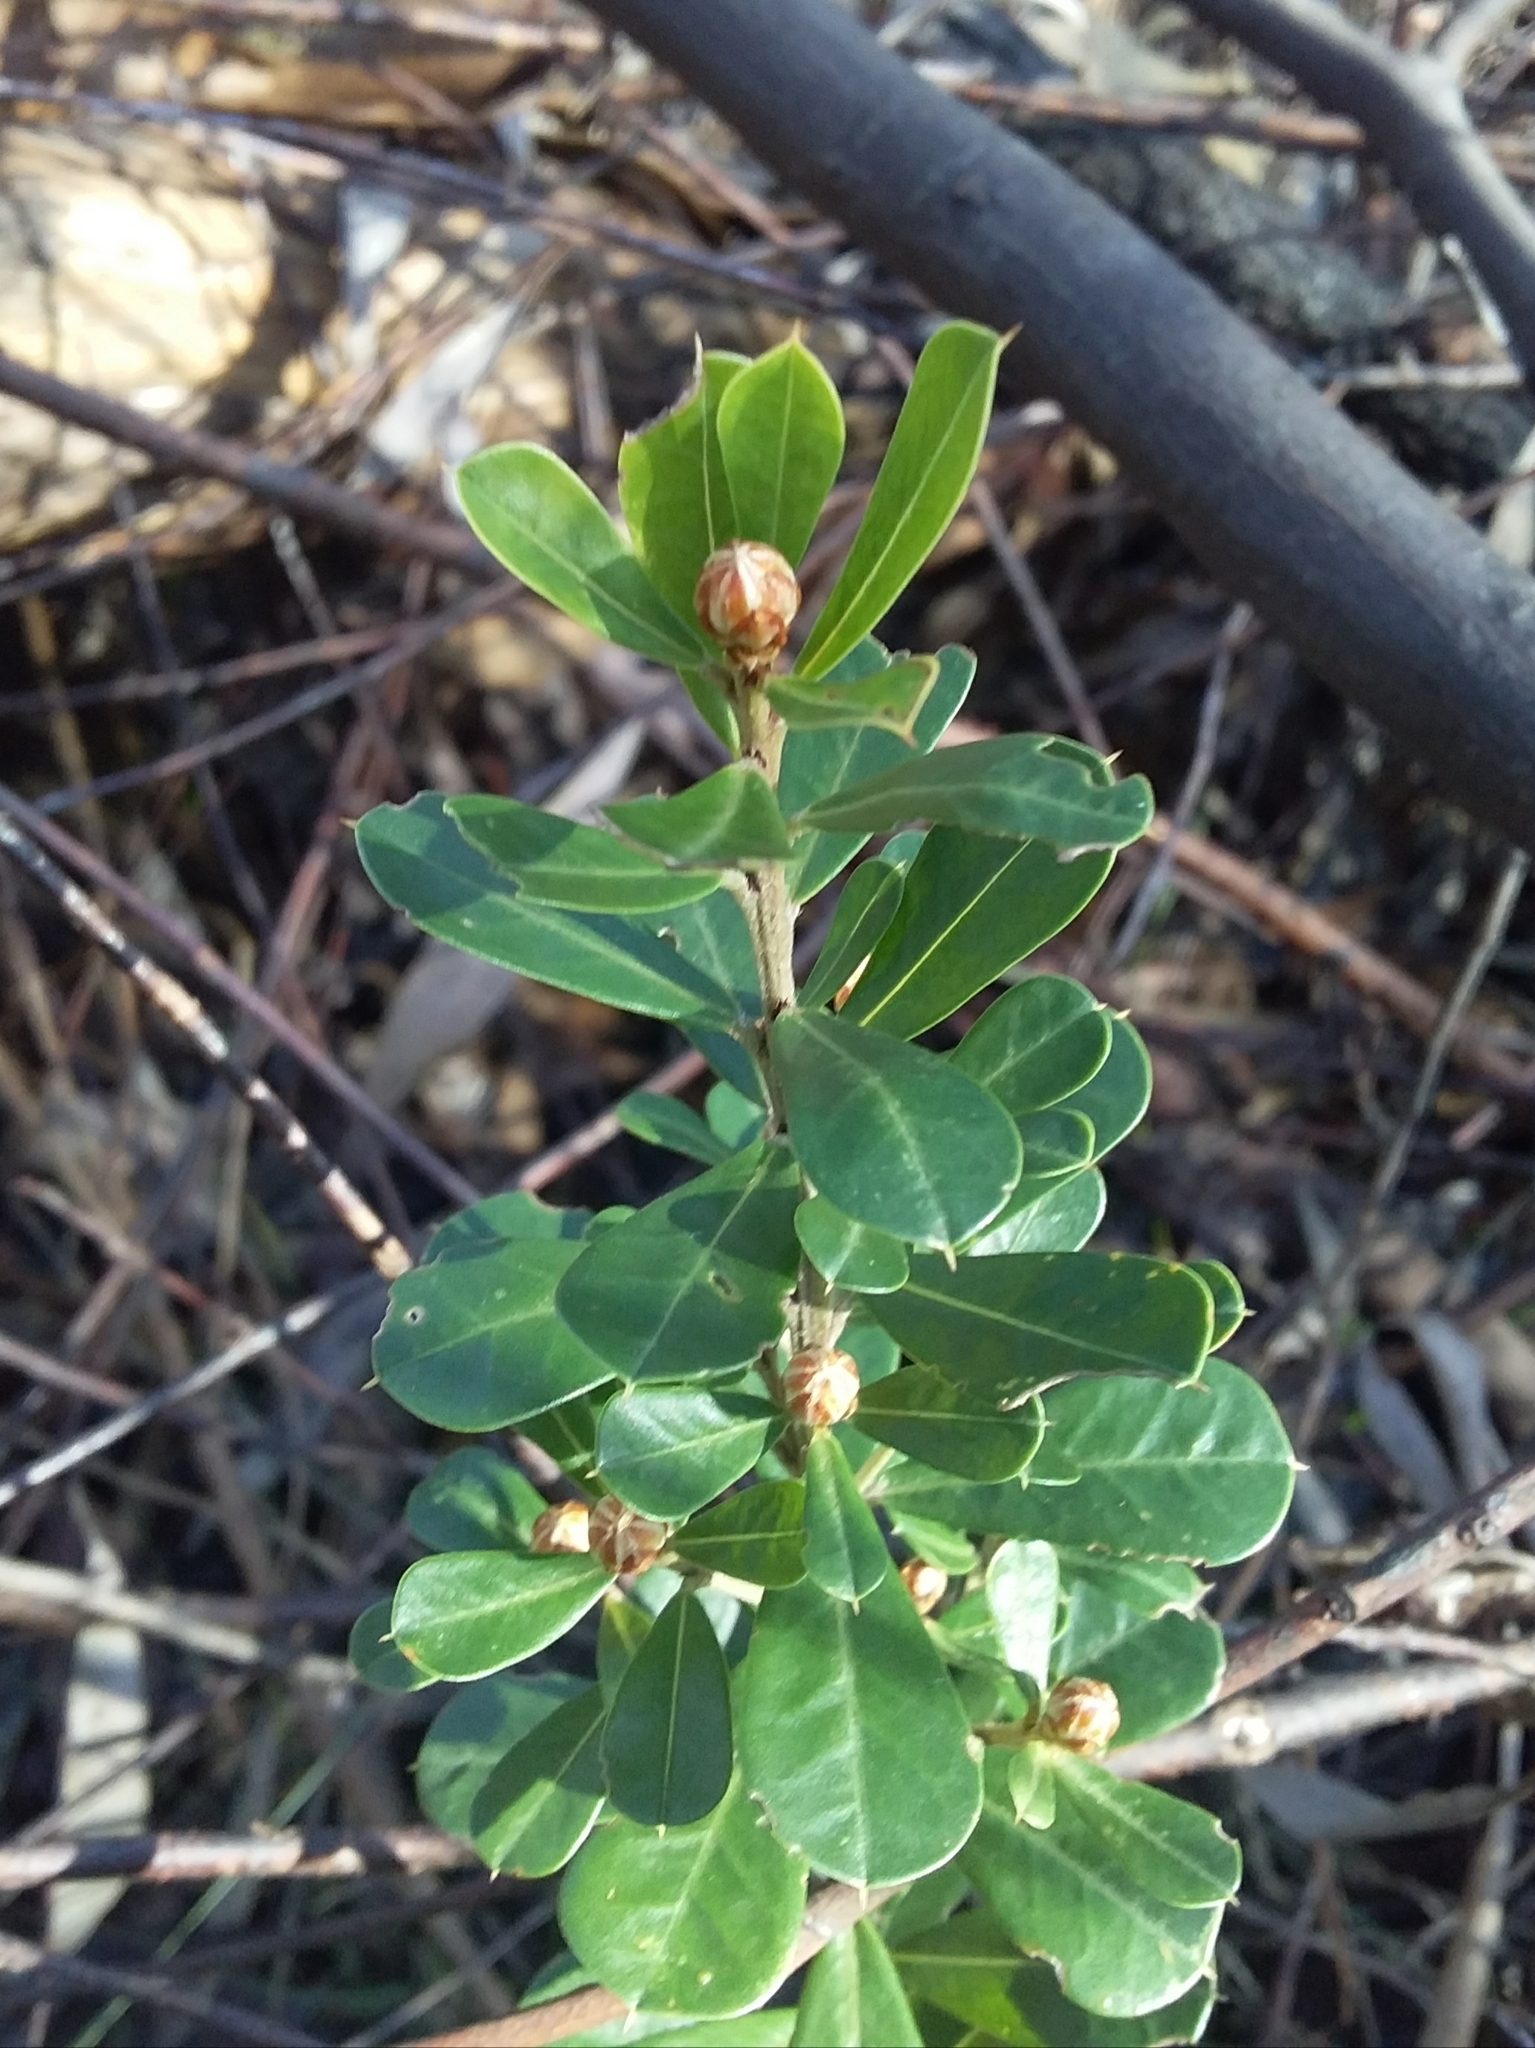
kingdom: Plantae
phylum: Tracheophyta
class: Magnoliopsida
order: Fabales
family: Fabaceae
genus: Pultenaea
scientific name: Pultenaea daphnoides
